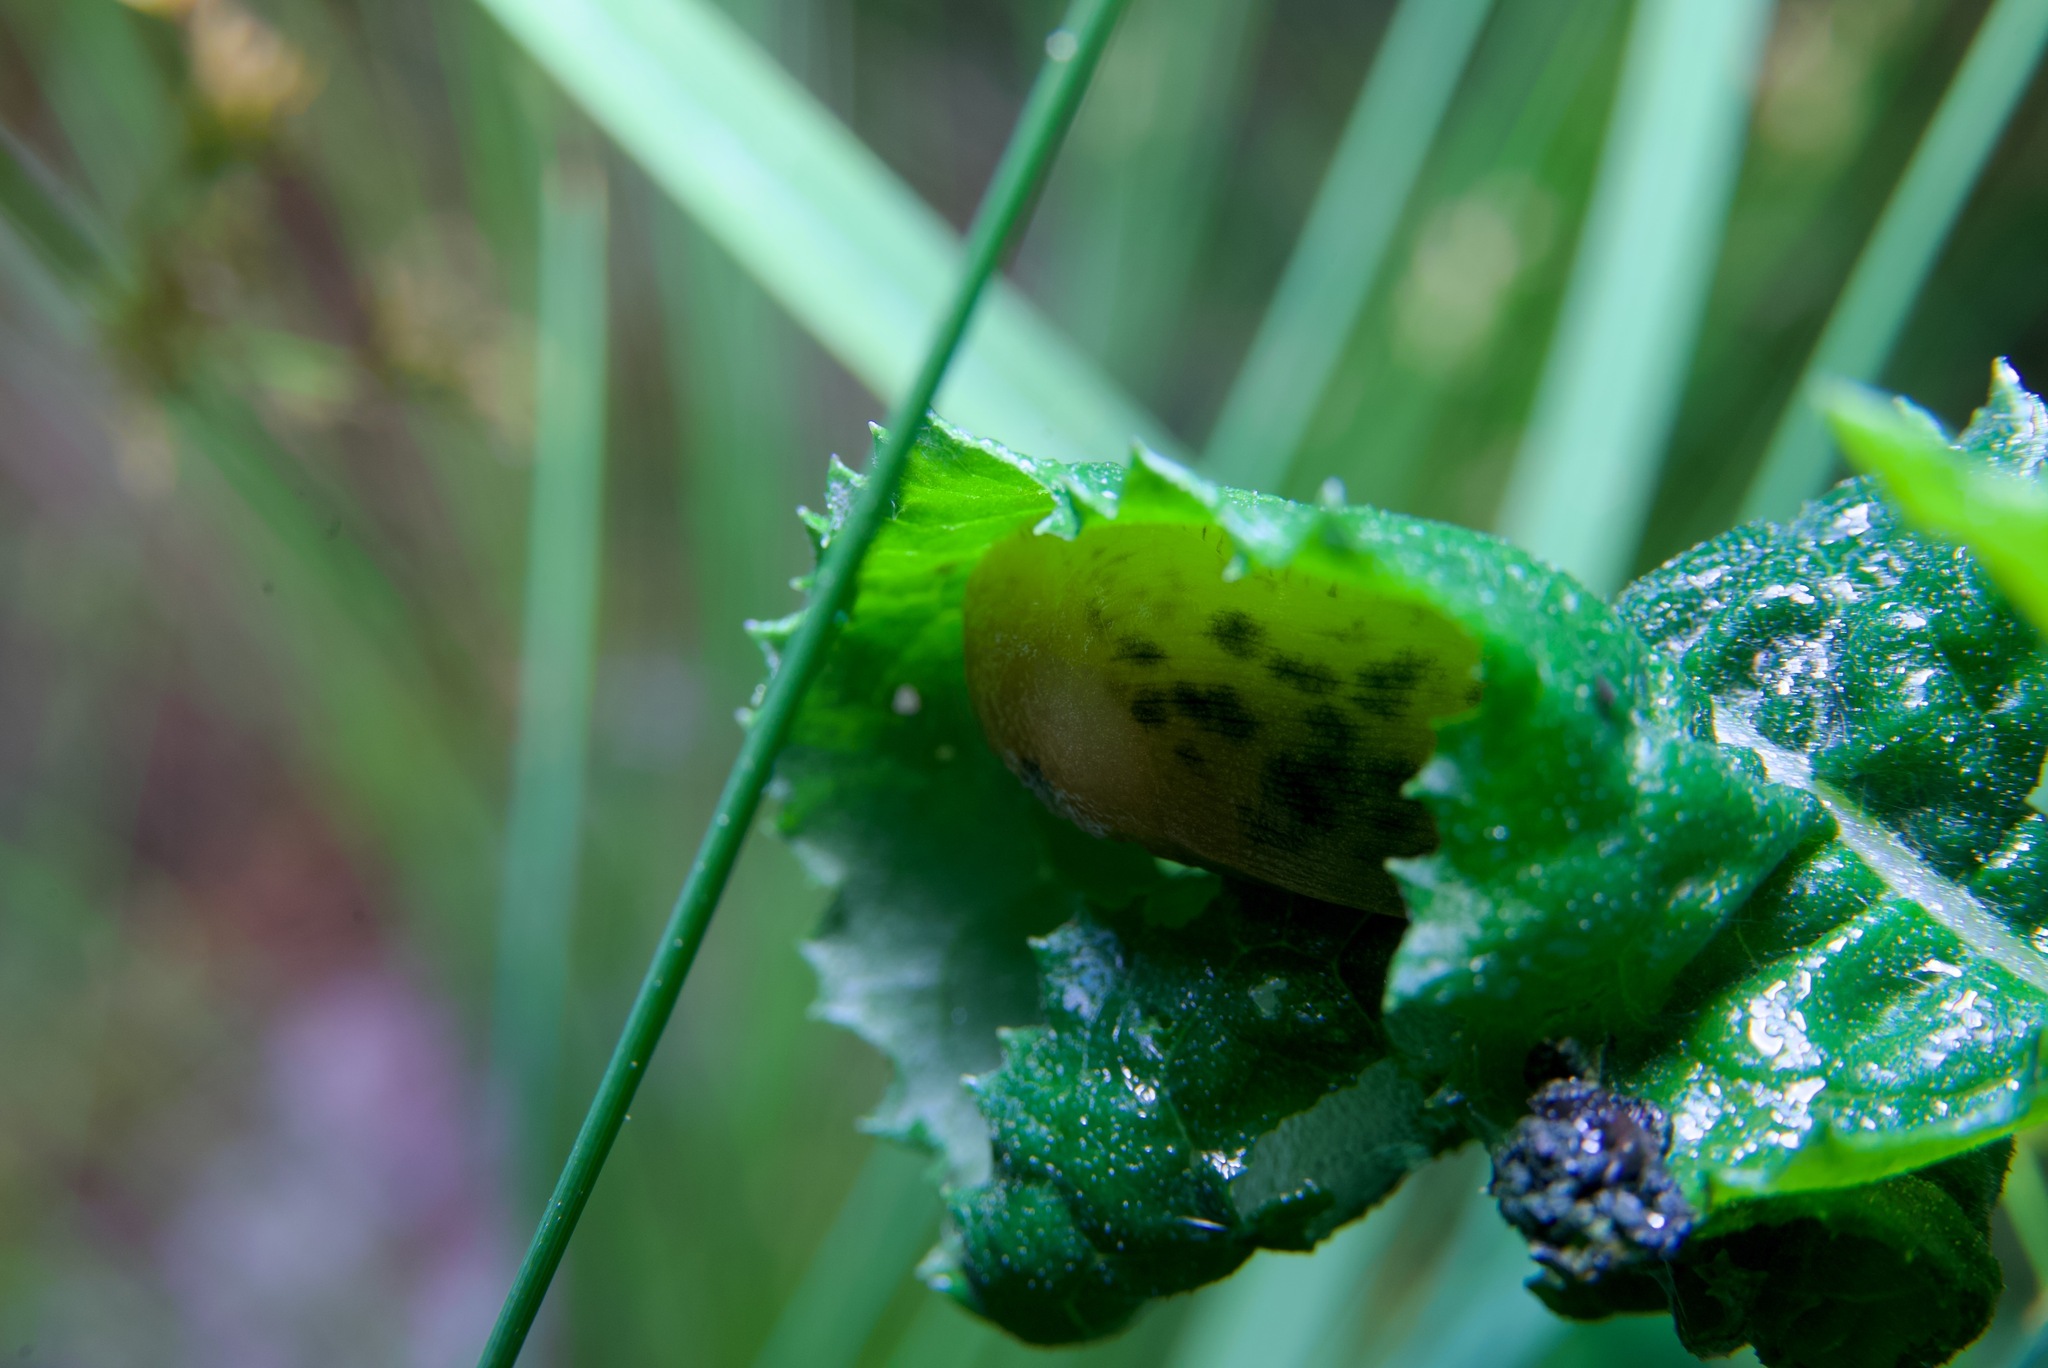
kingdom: Animalia
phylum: Mollusca
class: Gastropoda
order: Stylommatophora
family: Ariolimacidae
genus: Ariolimax
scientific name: Ariolimax buttoni
